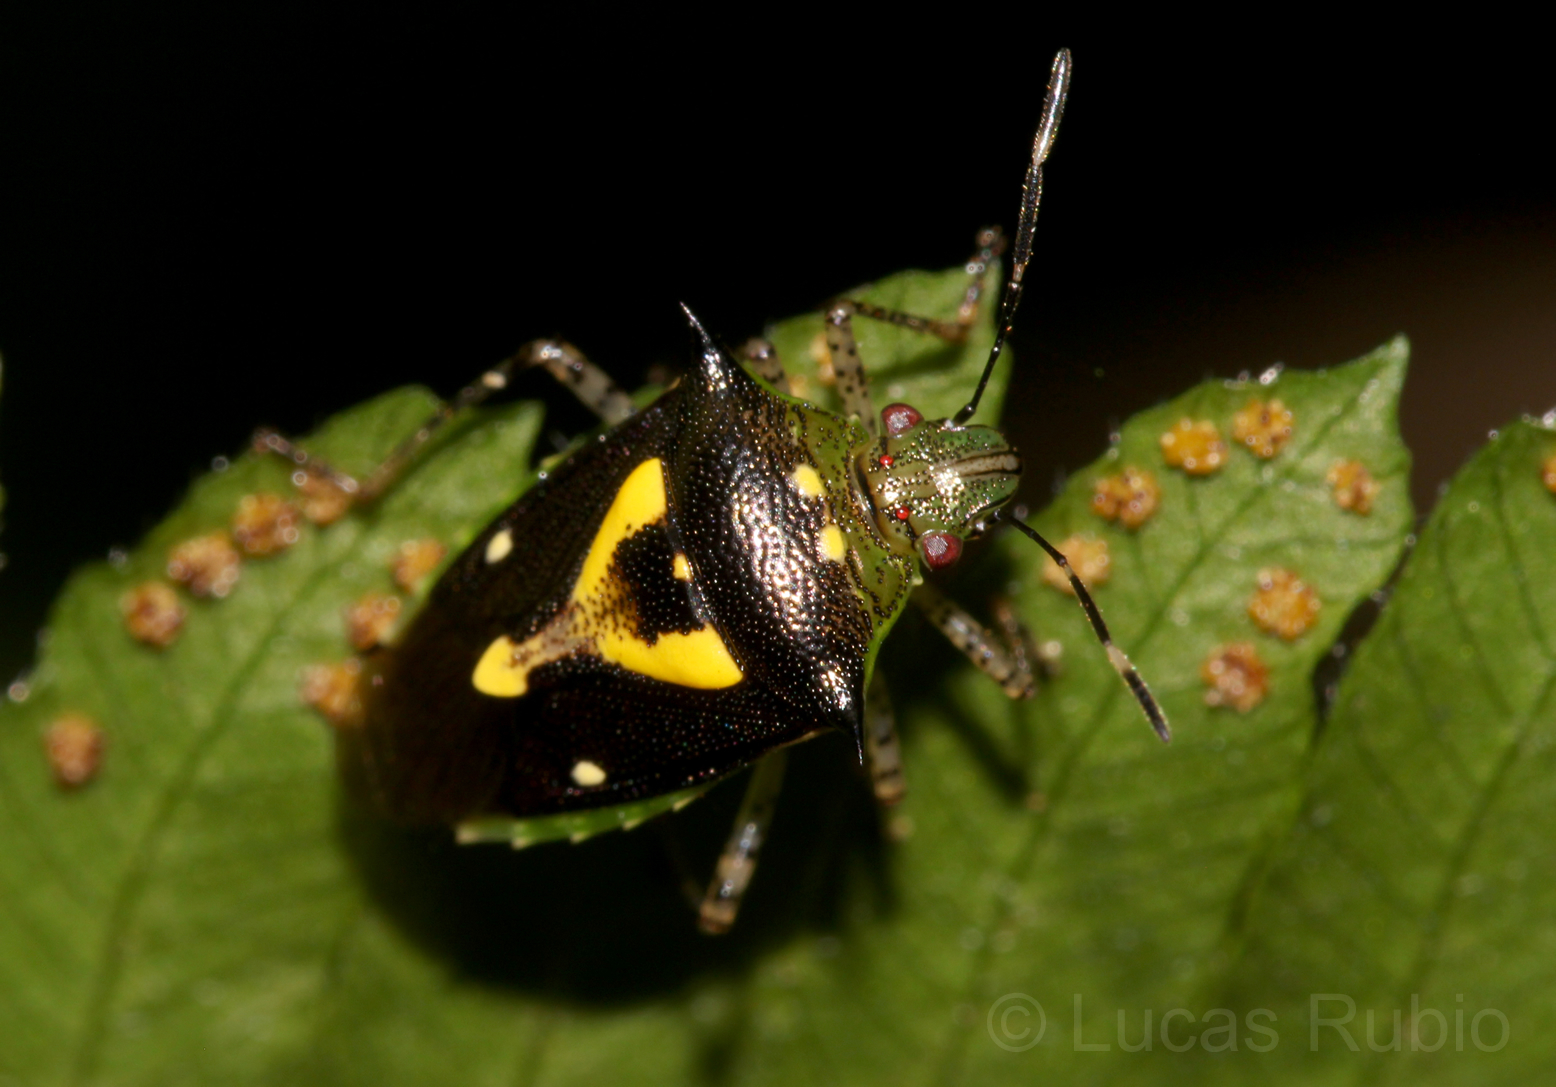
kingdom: Animalia
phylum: Arthropoda
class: Insecta
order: Hemiptera
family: Pentatomidae
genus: Mormidea
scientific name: Mormidea ypsilon
